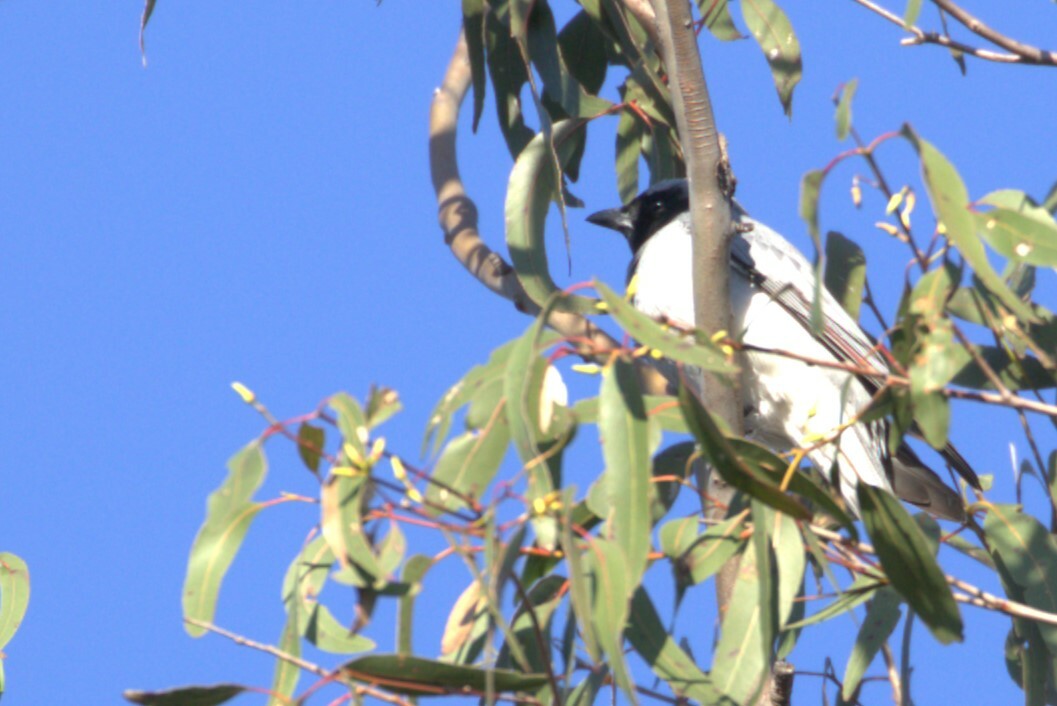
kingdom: Animalia
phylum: Chordata
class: Aves
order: Passeriformes
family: Campephagidae
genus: Coracina
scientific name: Coracina novaehollandiae
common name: Black-faced cuckooshrike
